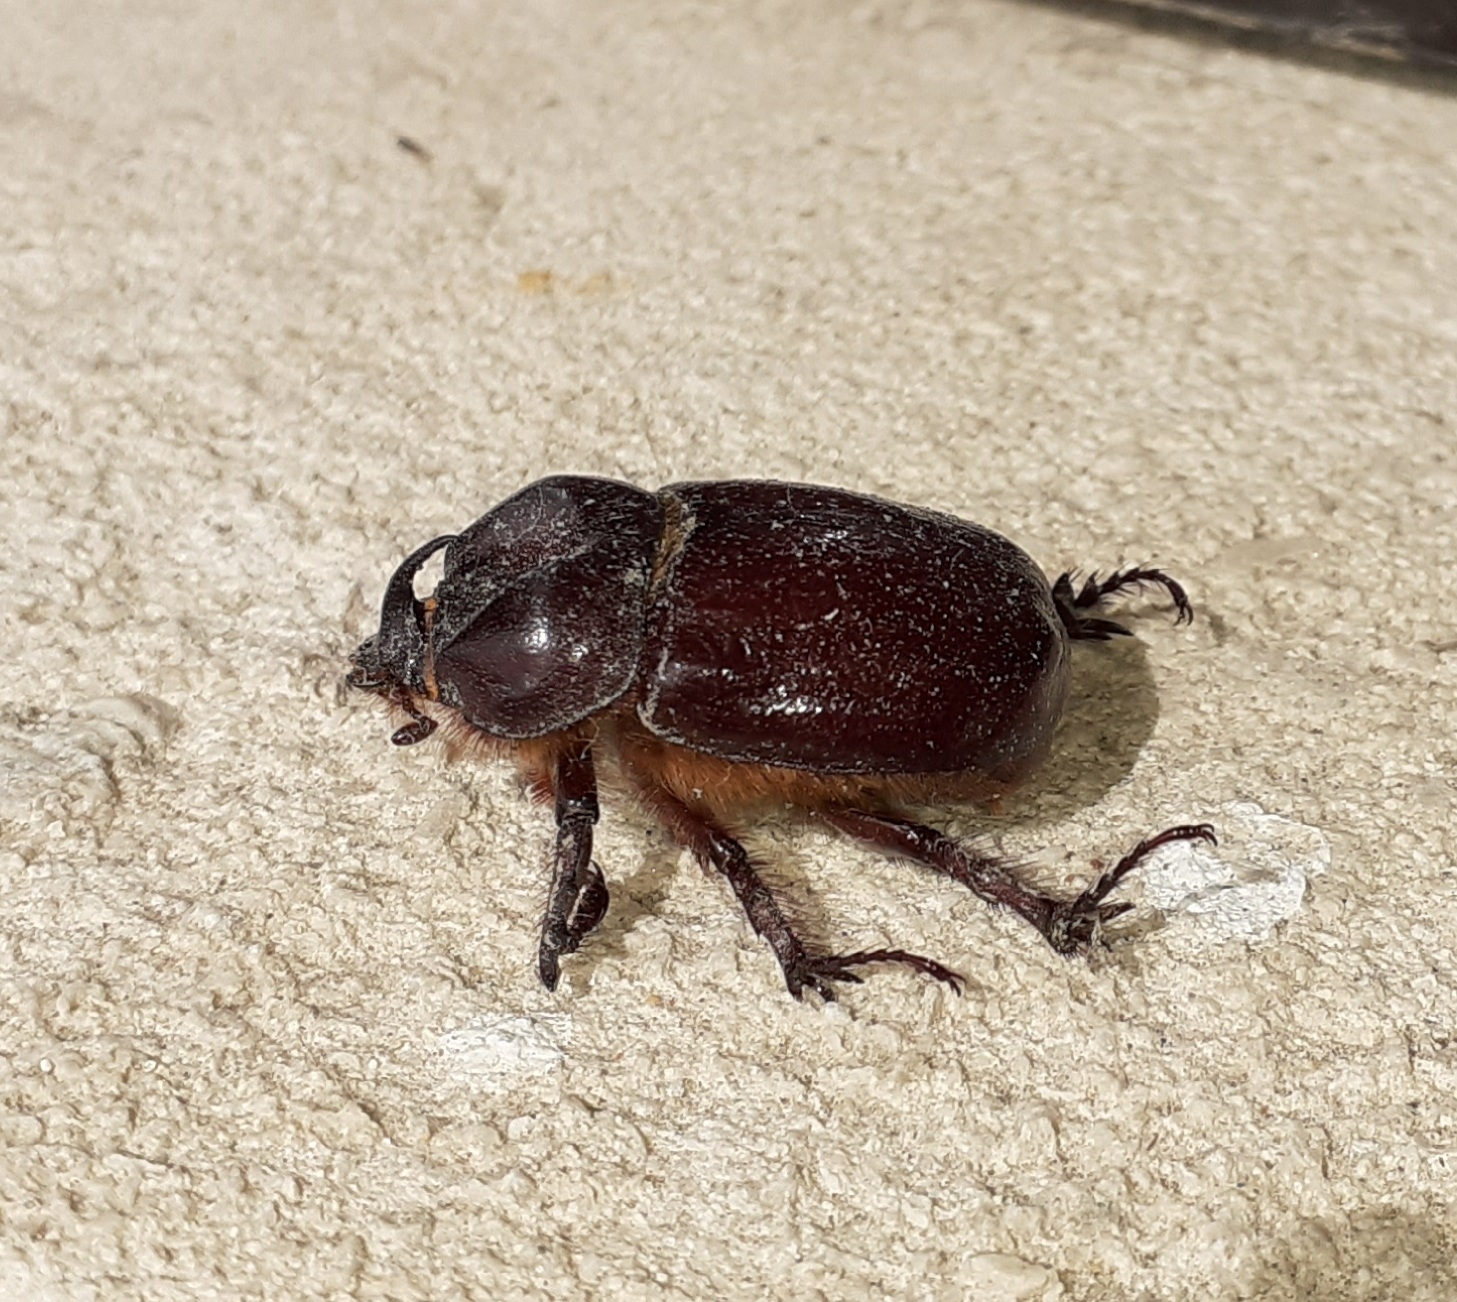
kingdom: Animalia
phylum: Arthropoda
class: Insecta
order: Coleoptera
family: Scarabaeidae
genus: Phyllognathus
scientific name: Phyllognathus excavatus
